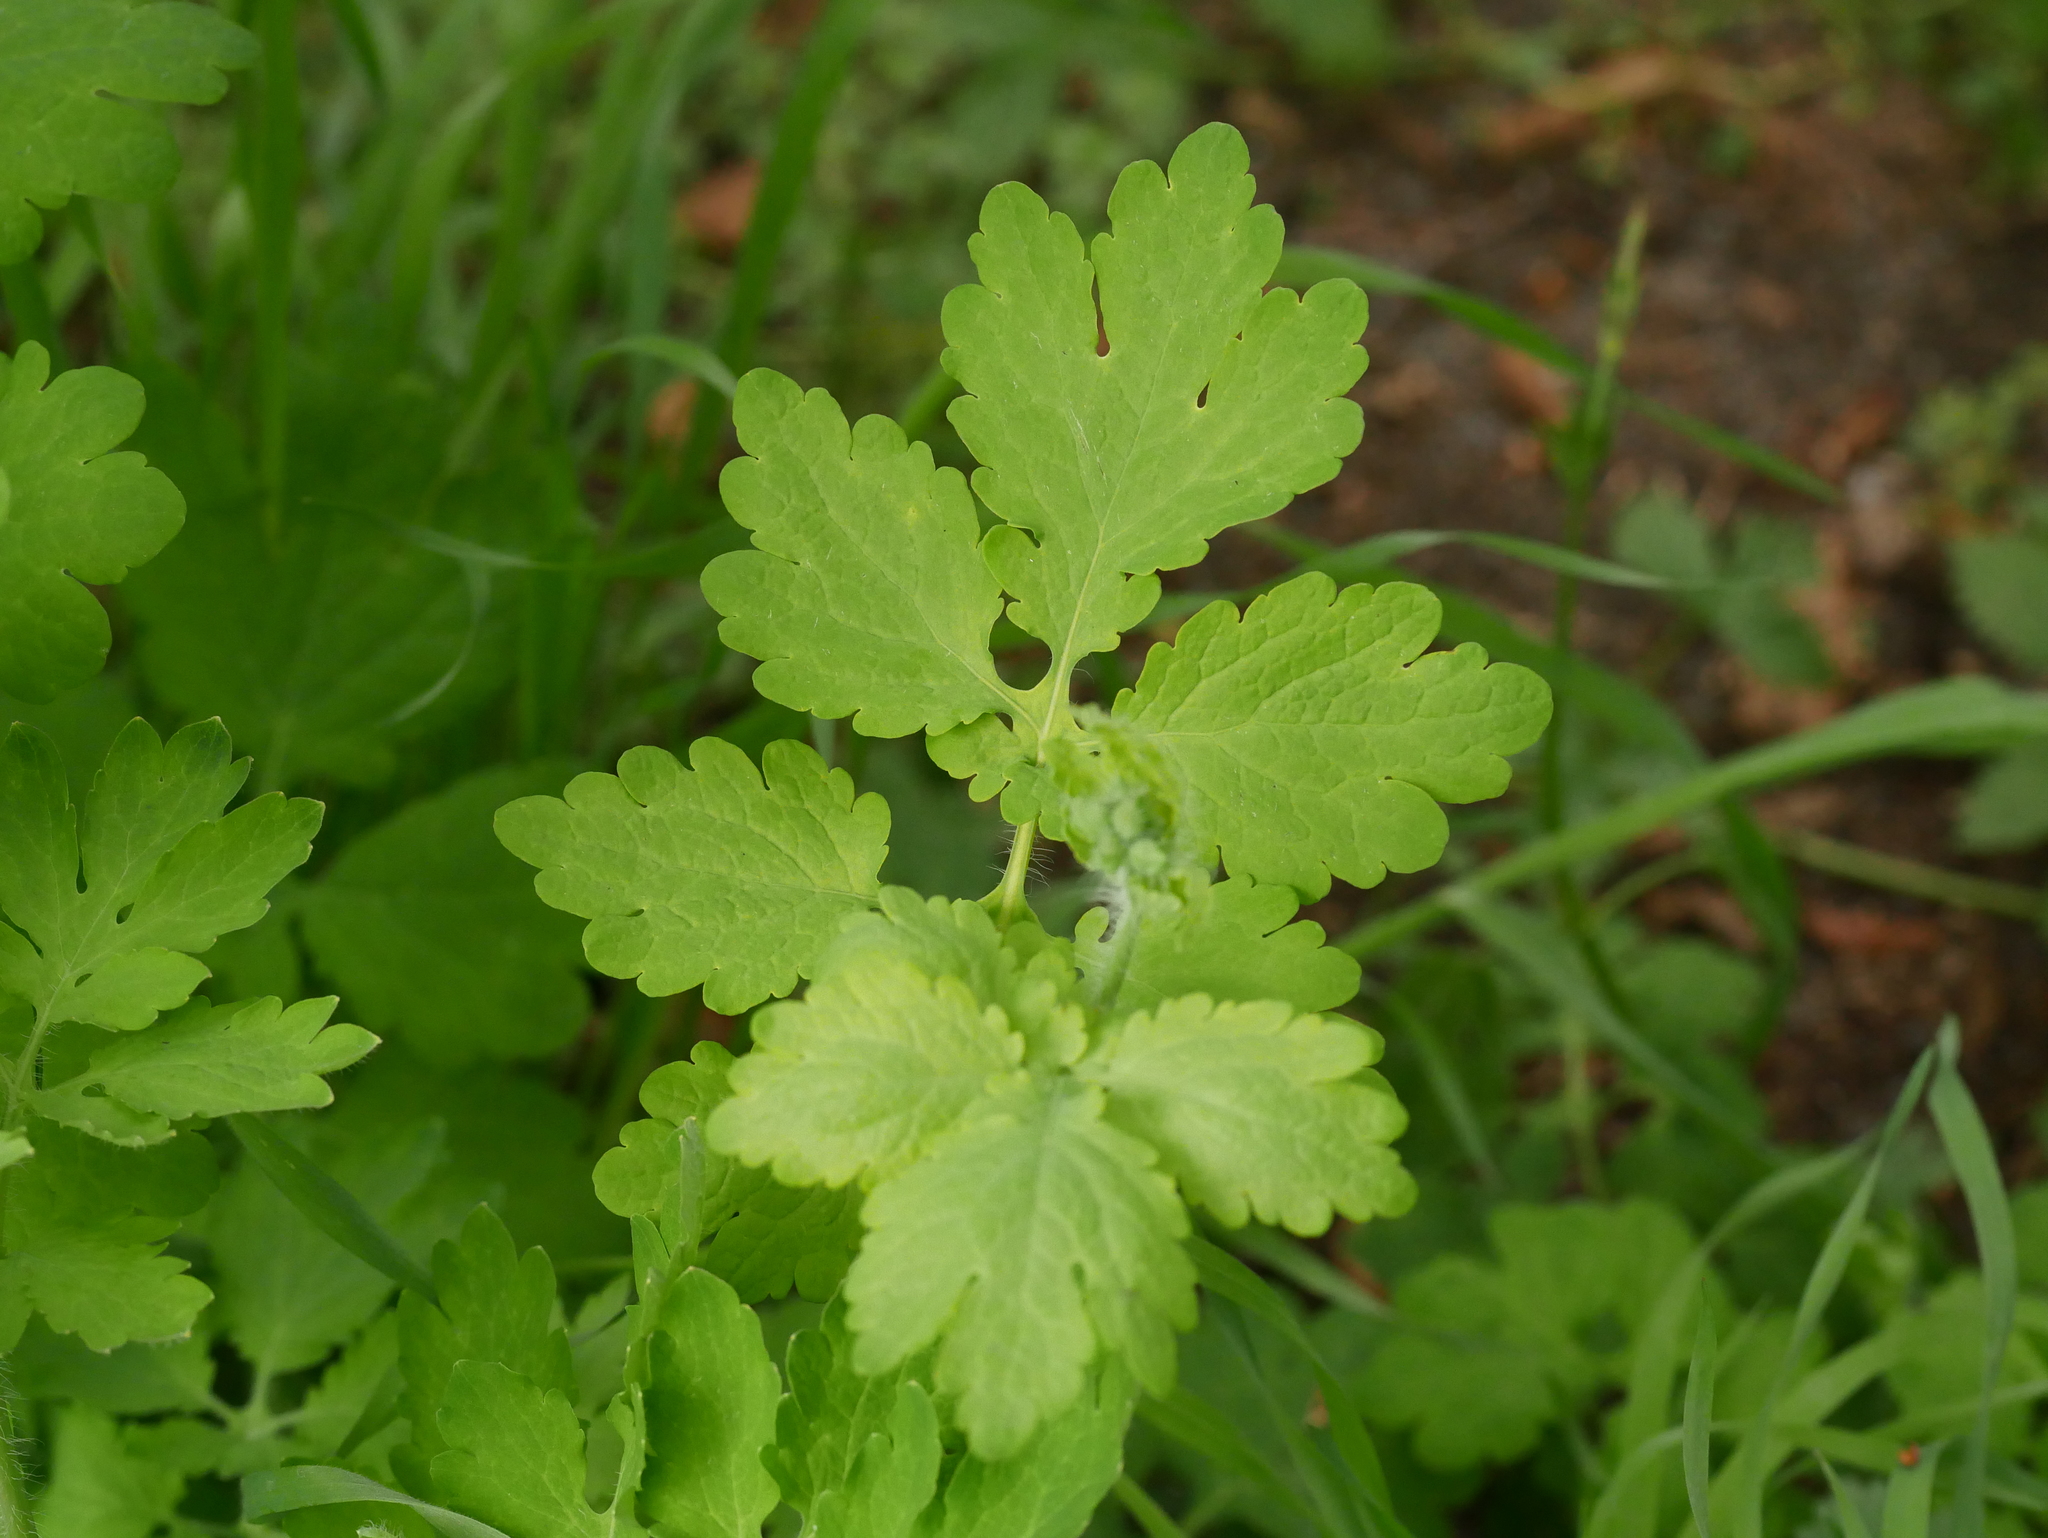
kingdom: Plantae
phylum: Tracheophyta
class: Magnoliopsida
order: Ranunculales
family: Papaveraceae
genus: Chelidonium
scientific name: Chelidonium majus
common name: Greater celandine
